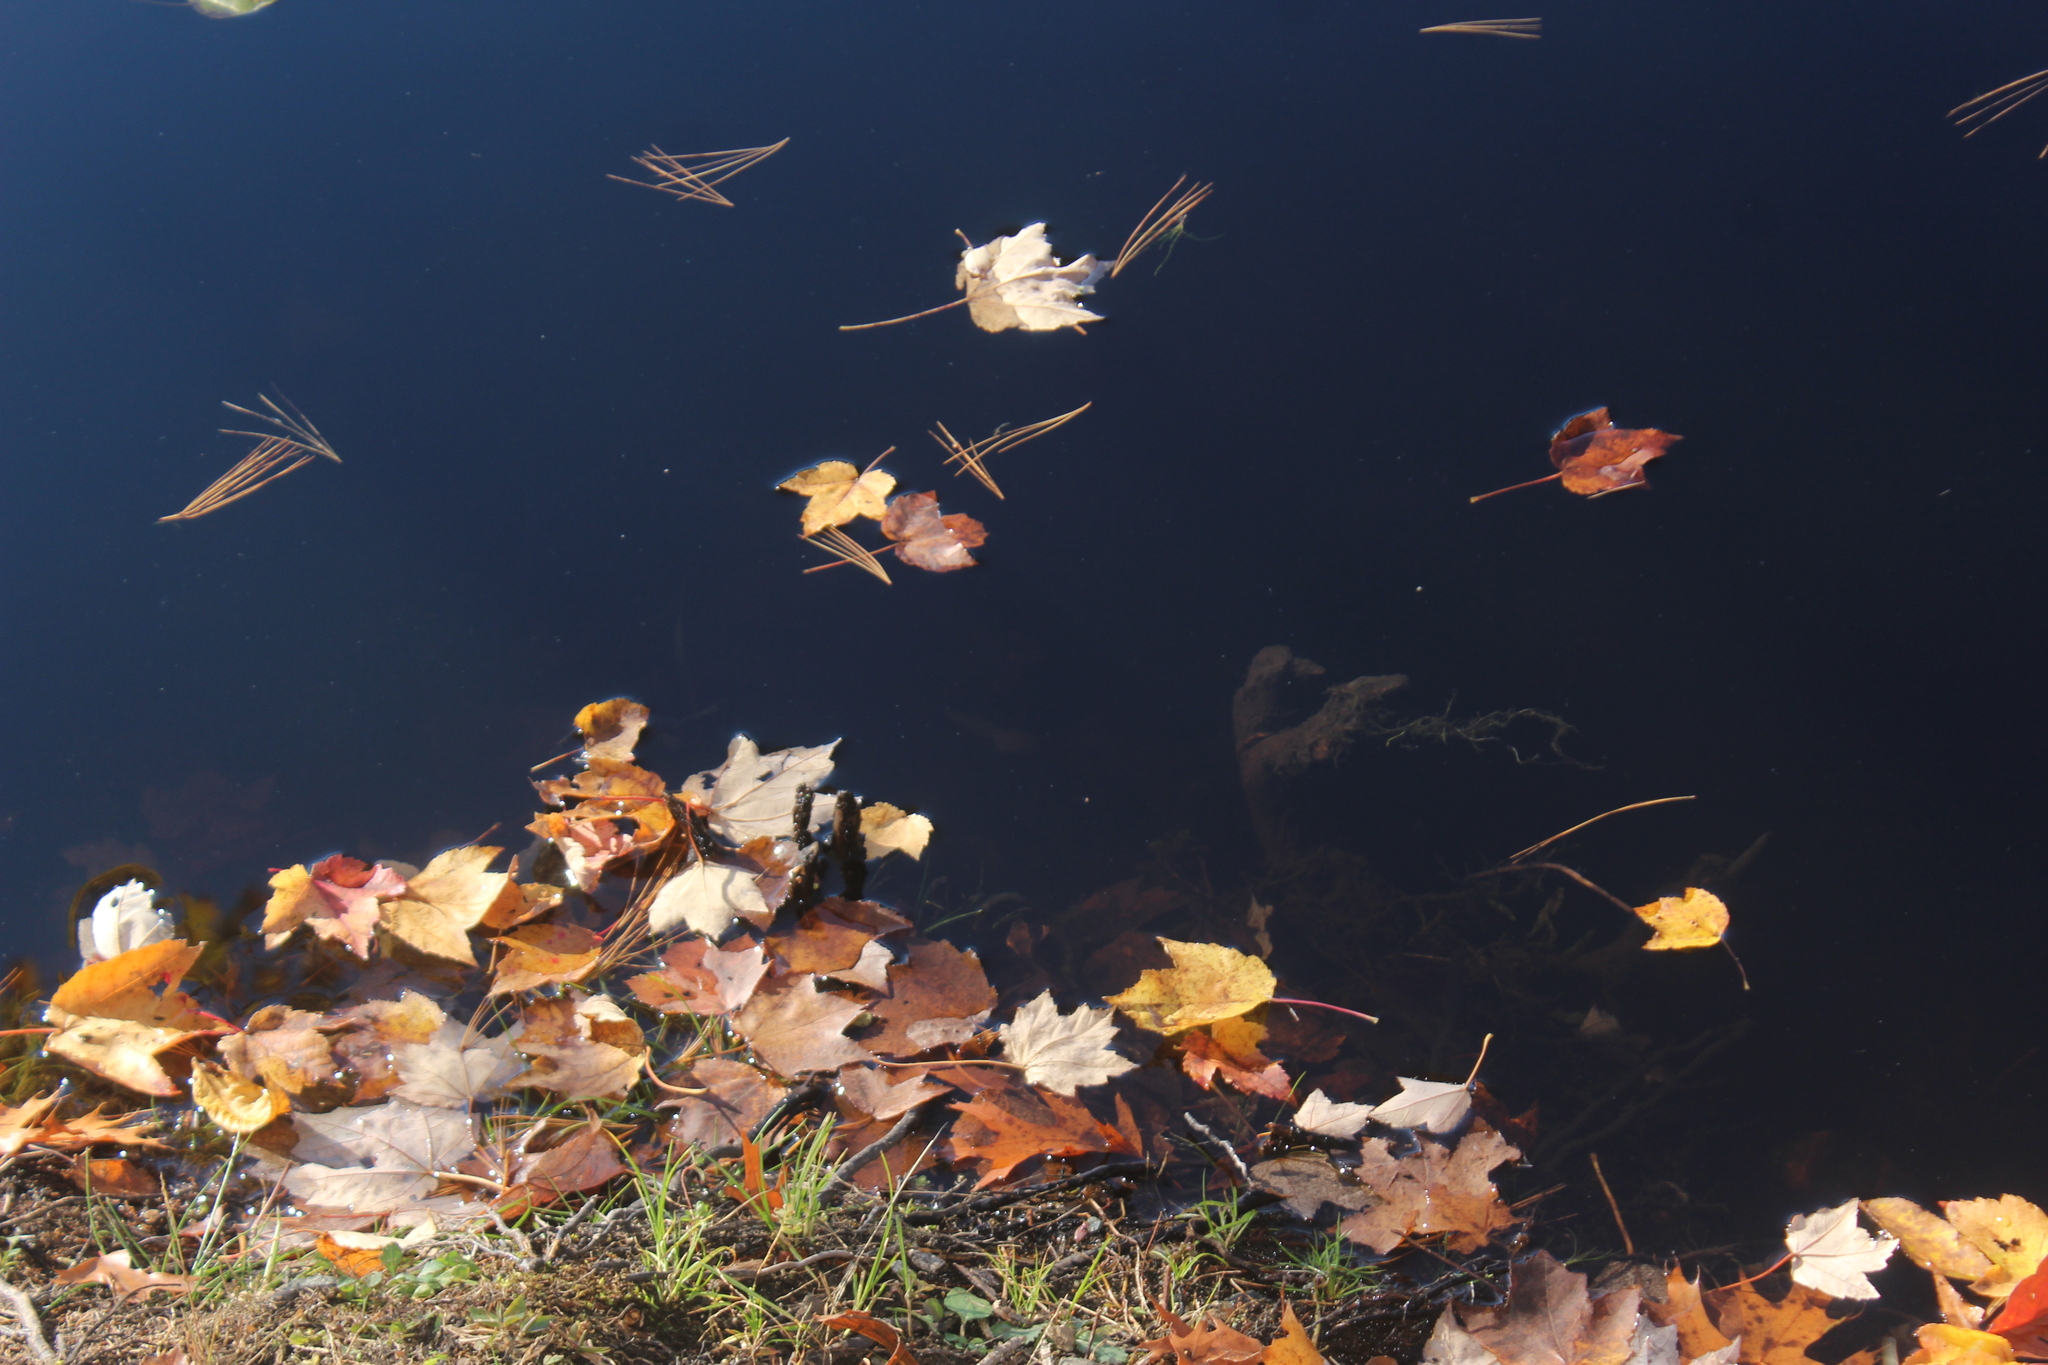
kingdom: Animalia
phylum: Chordata
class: Amphibia
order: Anura
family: Ranidae
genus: Lithobates
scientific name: Lithobates catesbeianus
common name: American bullfrog
